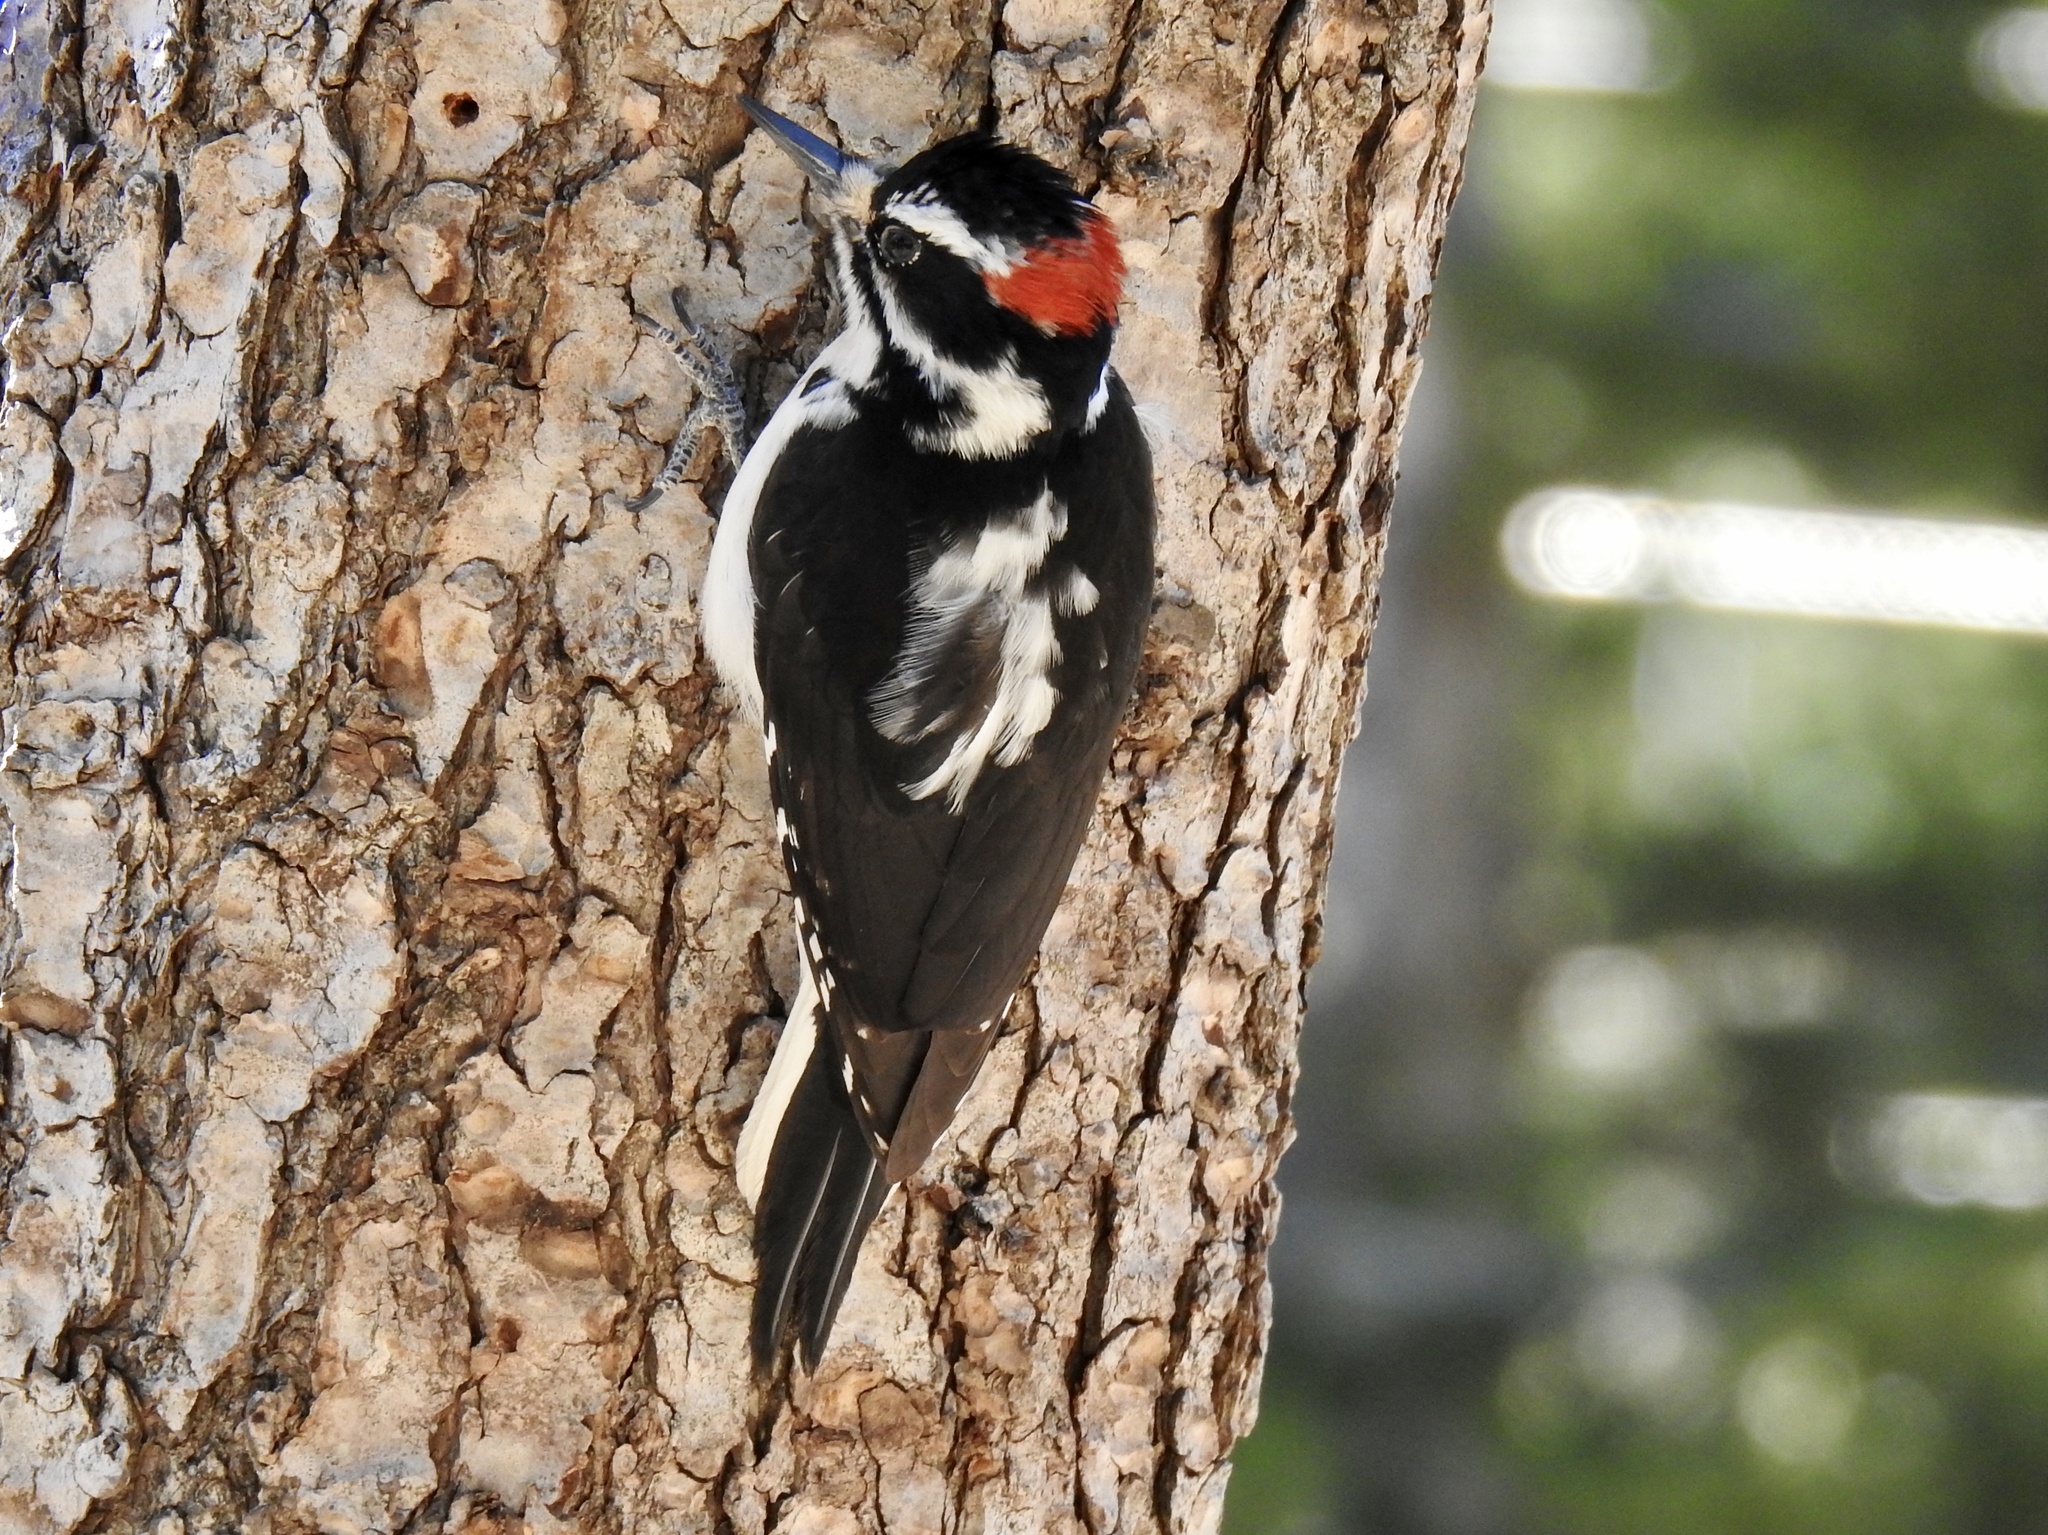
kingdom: Animalia
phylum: Chordata
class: Aves
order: Piciformes
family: Picidae
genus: Leuconotopicus
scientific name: Leuconotopicus villosus
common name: Hairy woodpecker
